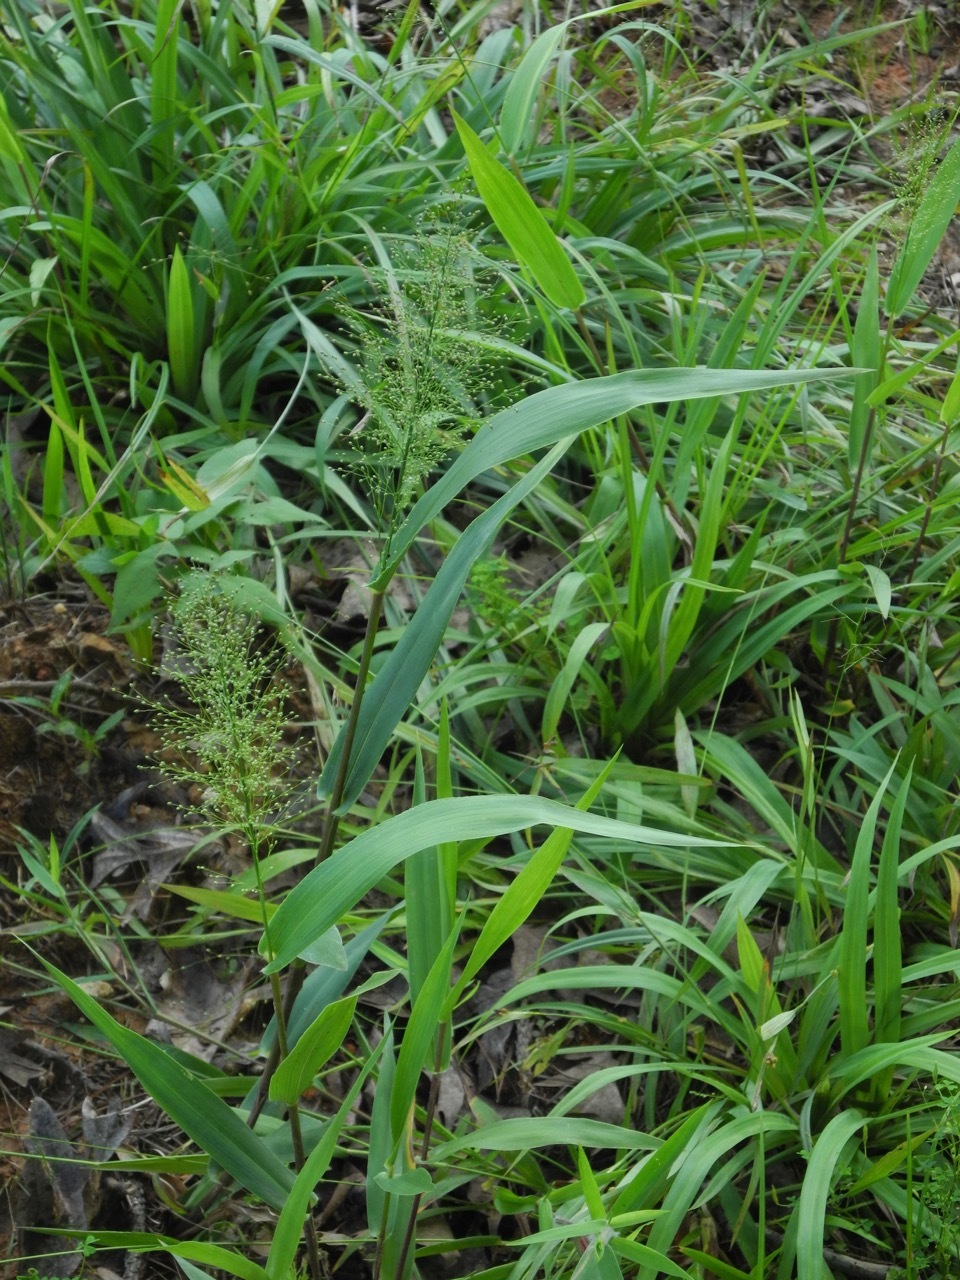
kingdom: Plantae
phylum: Tracheophyta
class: Liliopsida
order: Poales
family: Poaceae
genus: Dichanthelium
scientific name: Dichanthelium polyanthes
